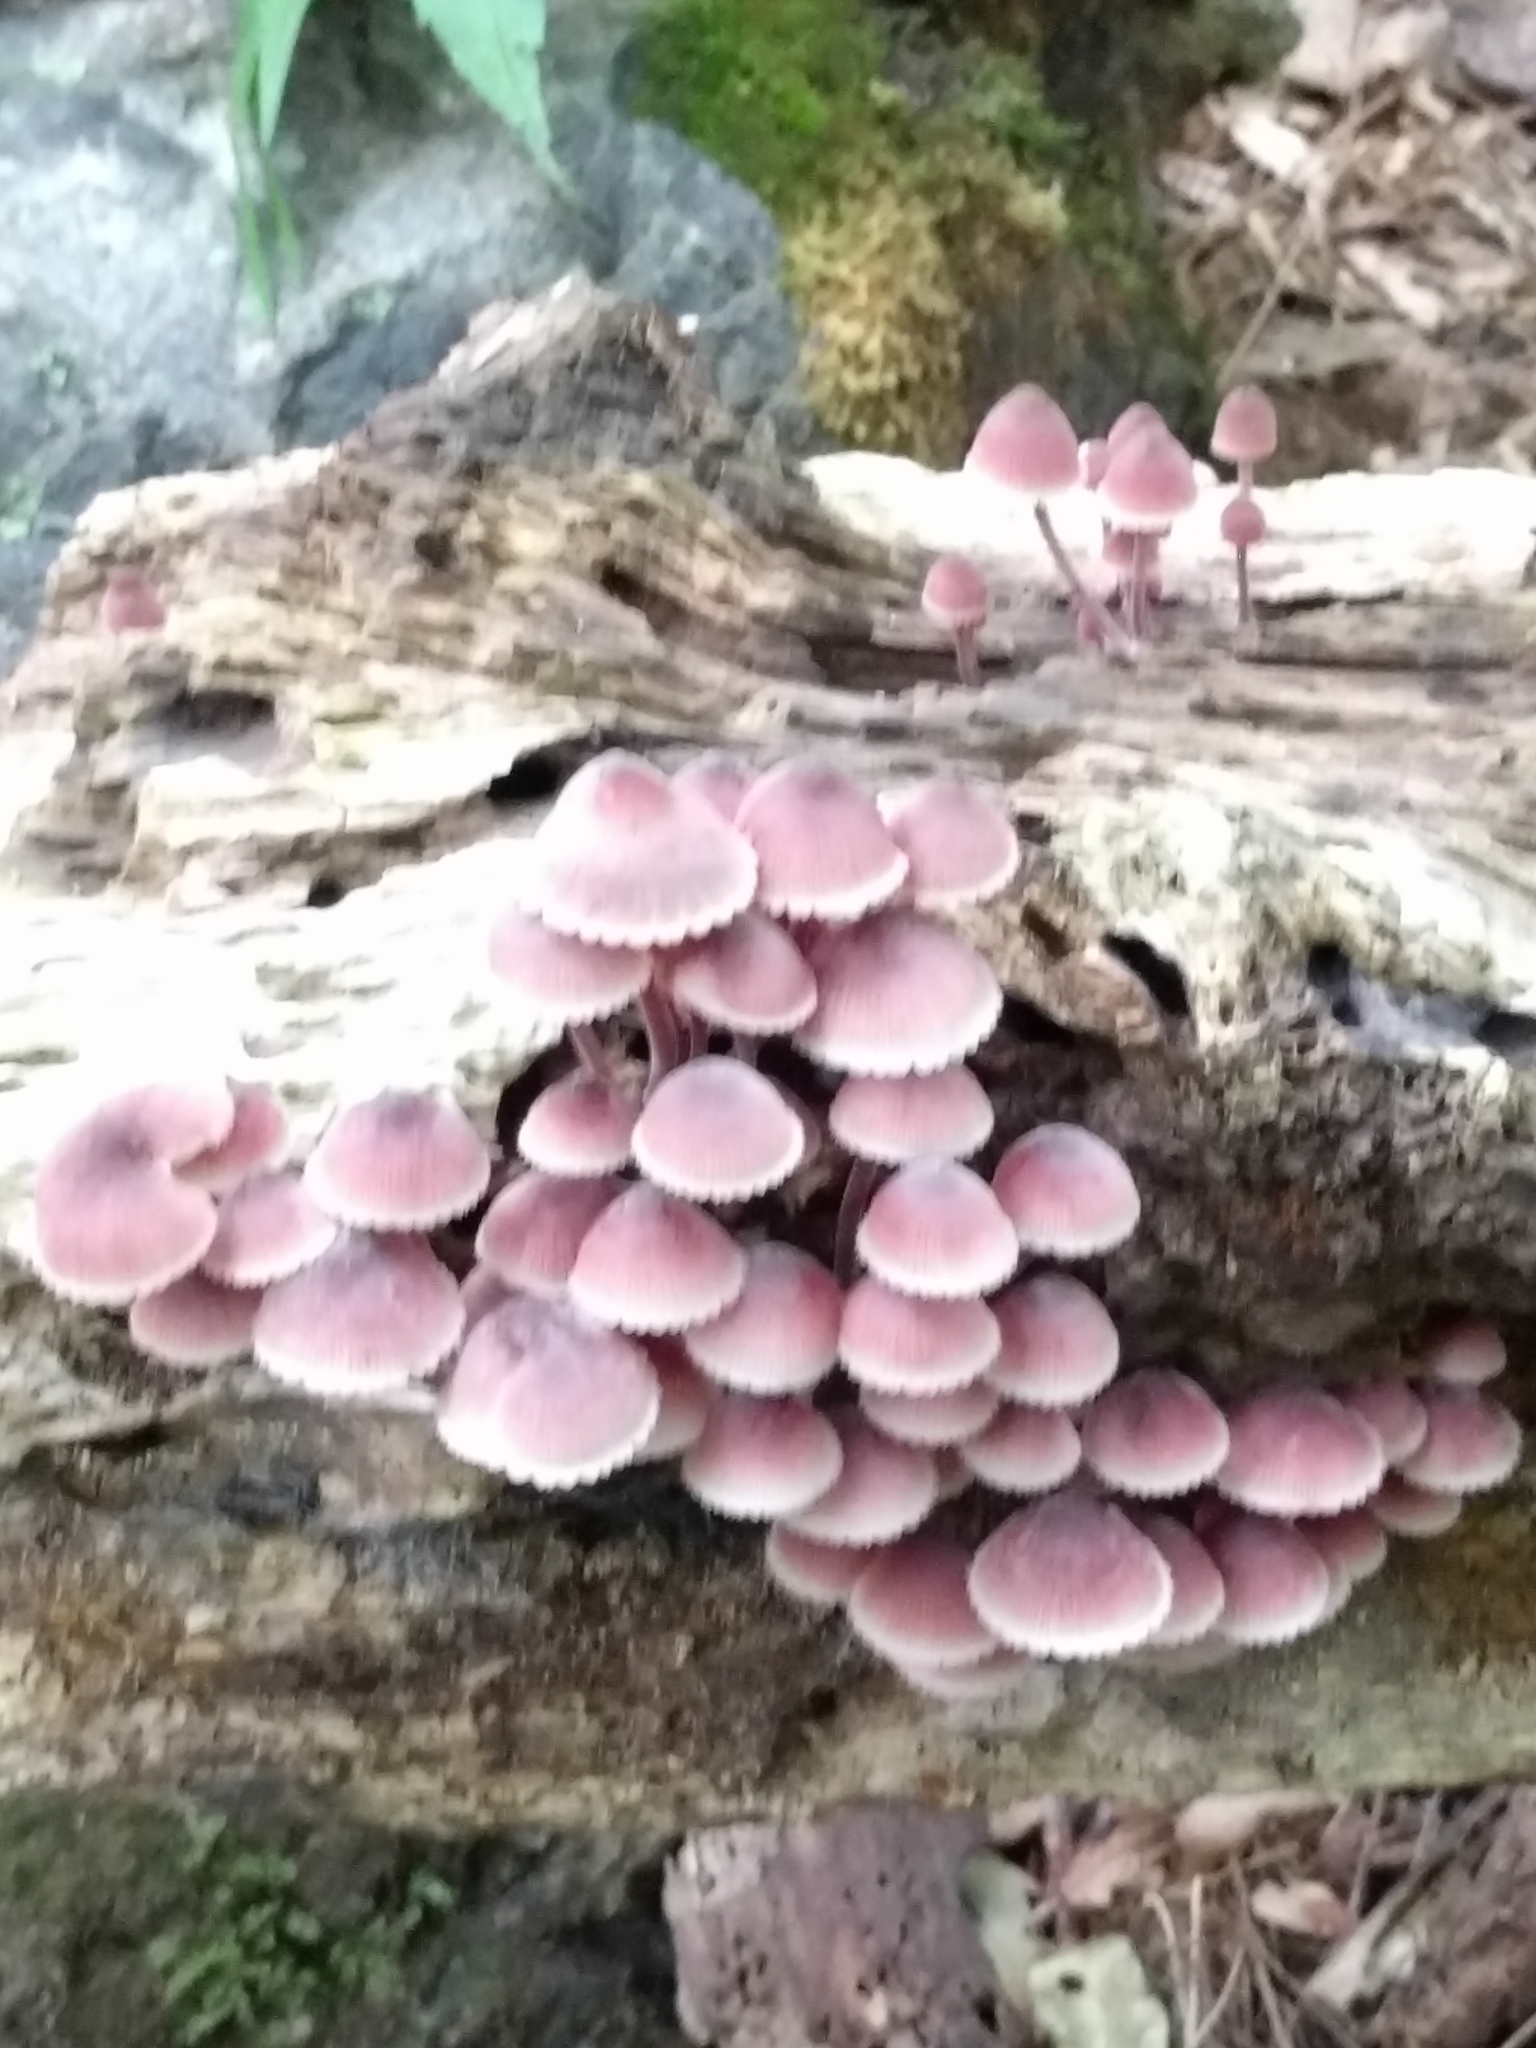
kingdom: Fungi
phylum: Basidiomycota
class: Agaricomycetes
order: Agaricales
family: Mycenaceae
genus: Mycena
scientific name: Mycena haematopus
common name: Burgundydrop bonnet
